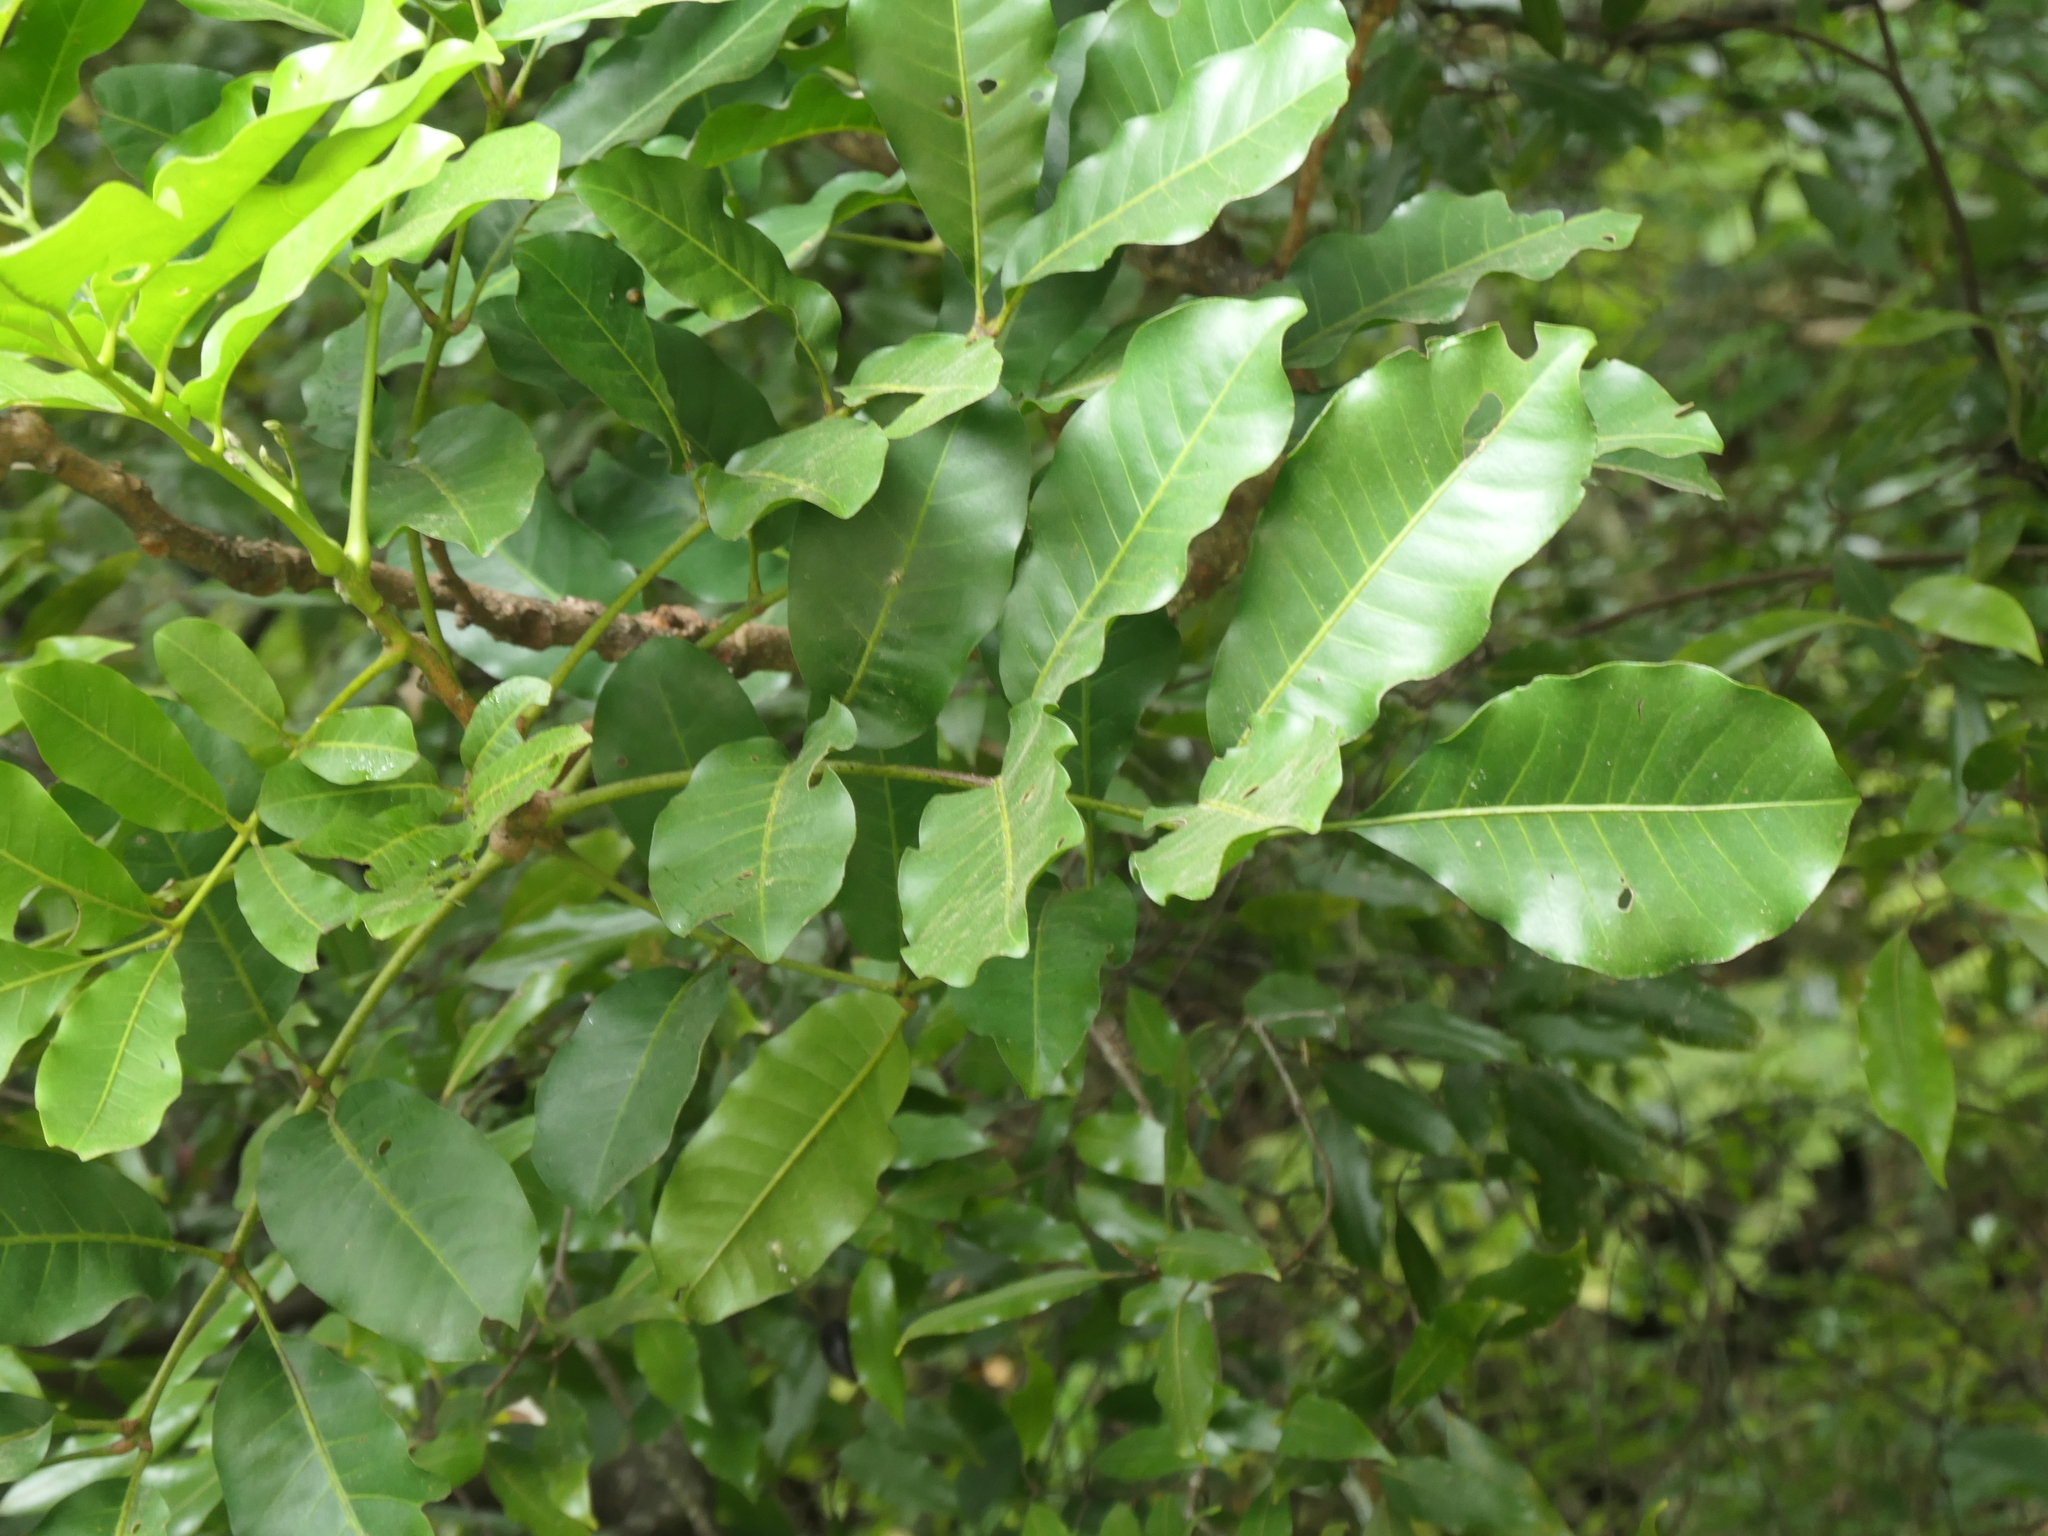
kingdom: Plantae
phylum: Tracheophyta
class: Magnoliopsida
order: Sapindales
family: Meliaceae
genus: Didymocheton
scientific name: Didymocheton spectabilis
